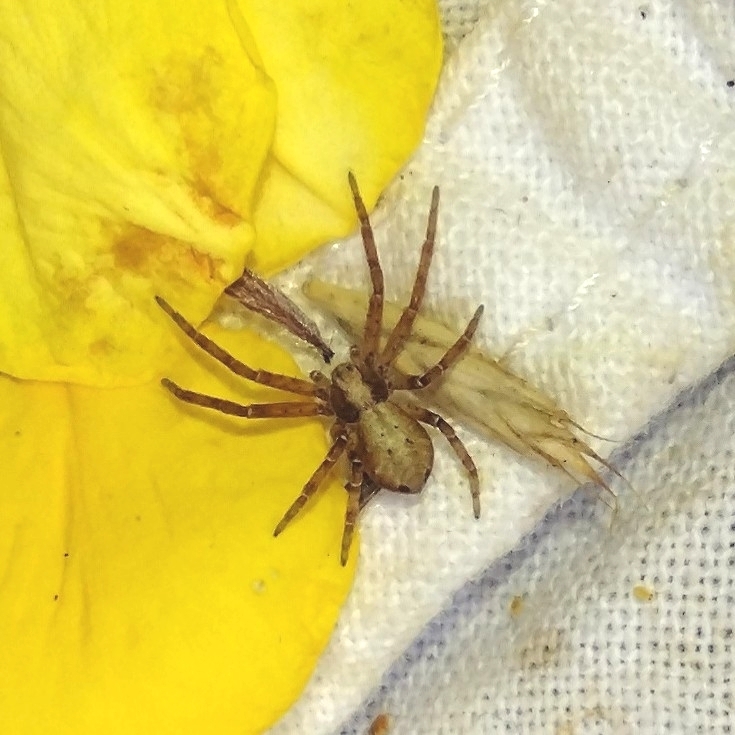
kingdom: Animalia
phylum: Arthropoda
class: Arachnida
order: Araneae
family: Philodromidae
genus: Philodromus
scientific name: Philodromus cespitum
